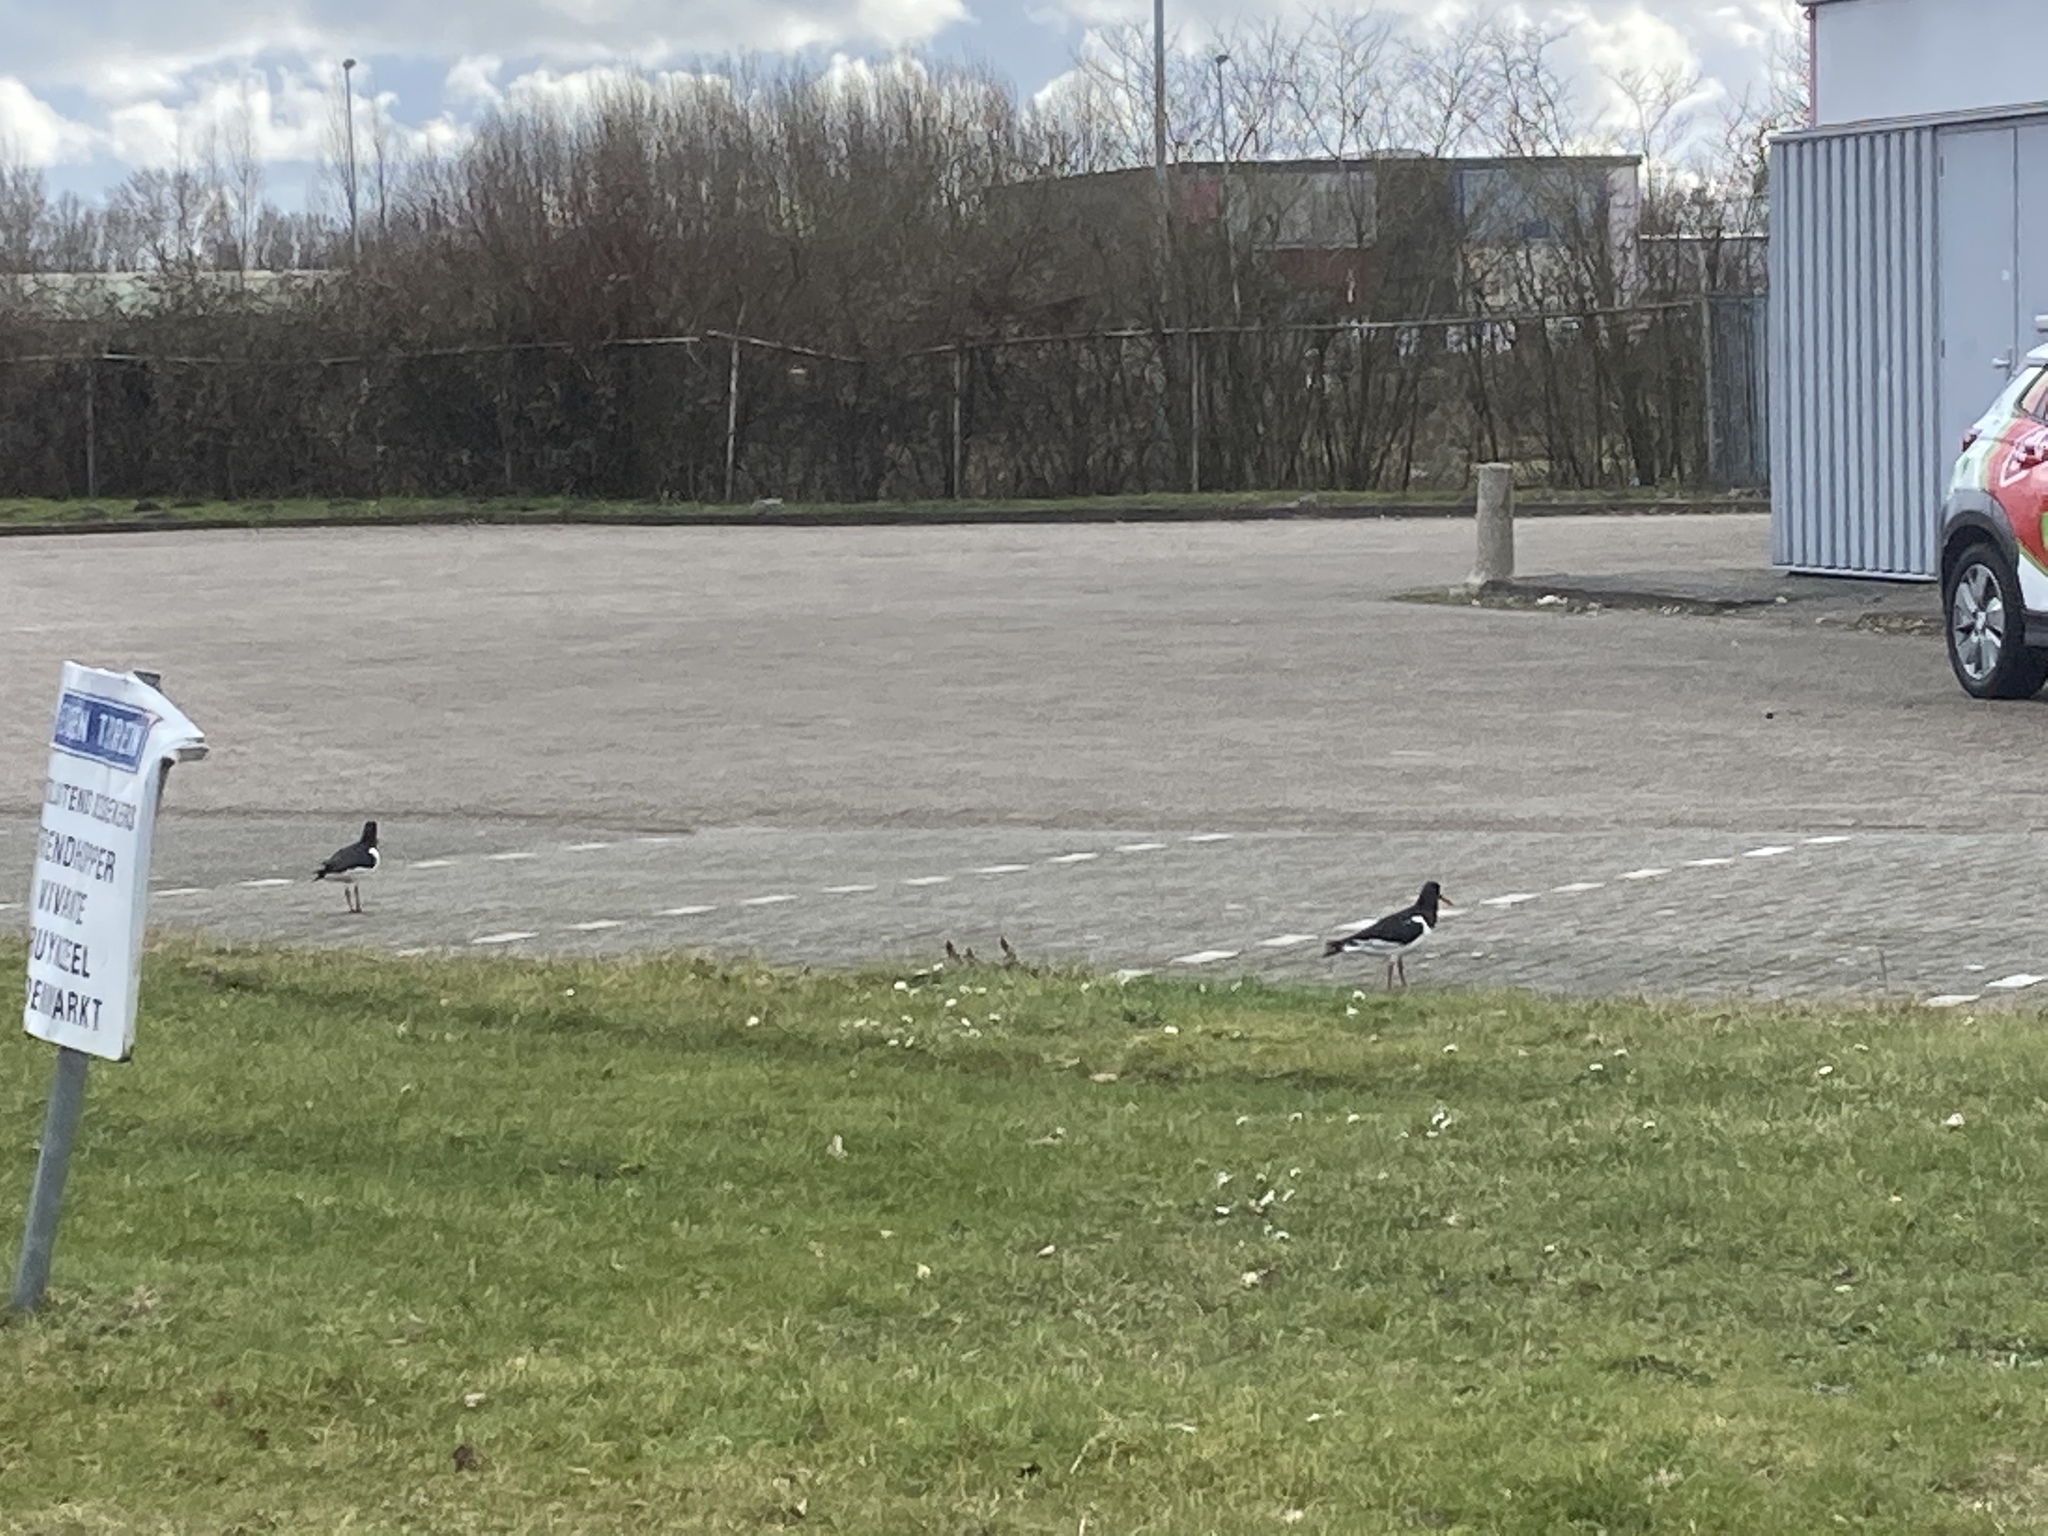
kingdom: Animalia
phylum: Chordata
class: Aves
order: Charadriiformes
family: Haematopodidae
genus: Haematopus
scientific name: Haematopus ostralegus
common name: Eurasian oystercatcher
